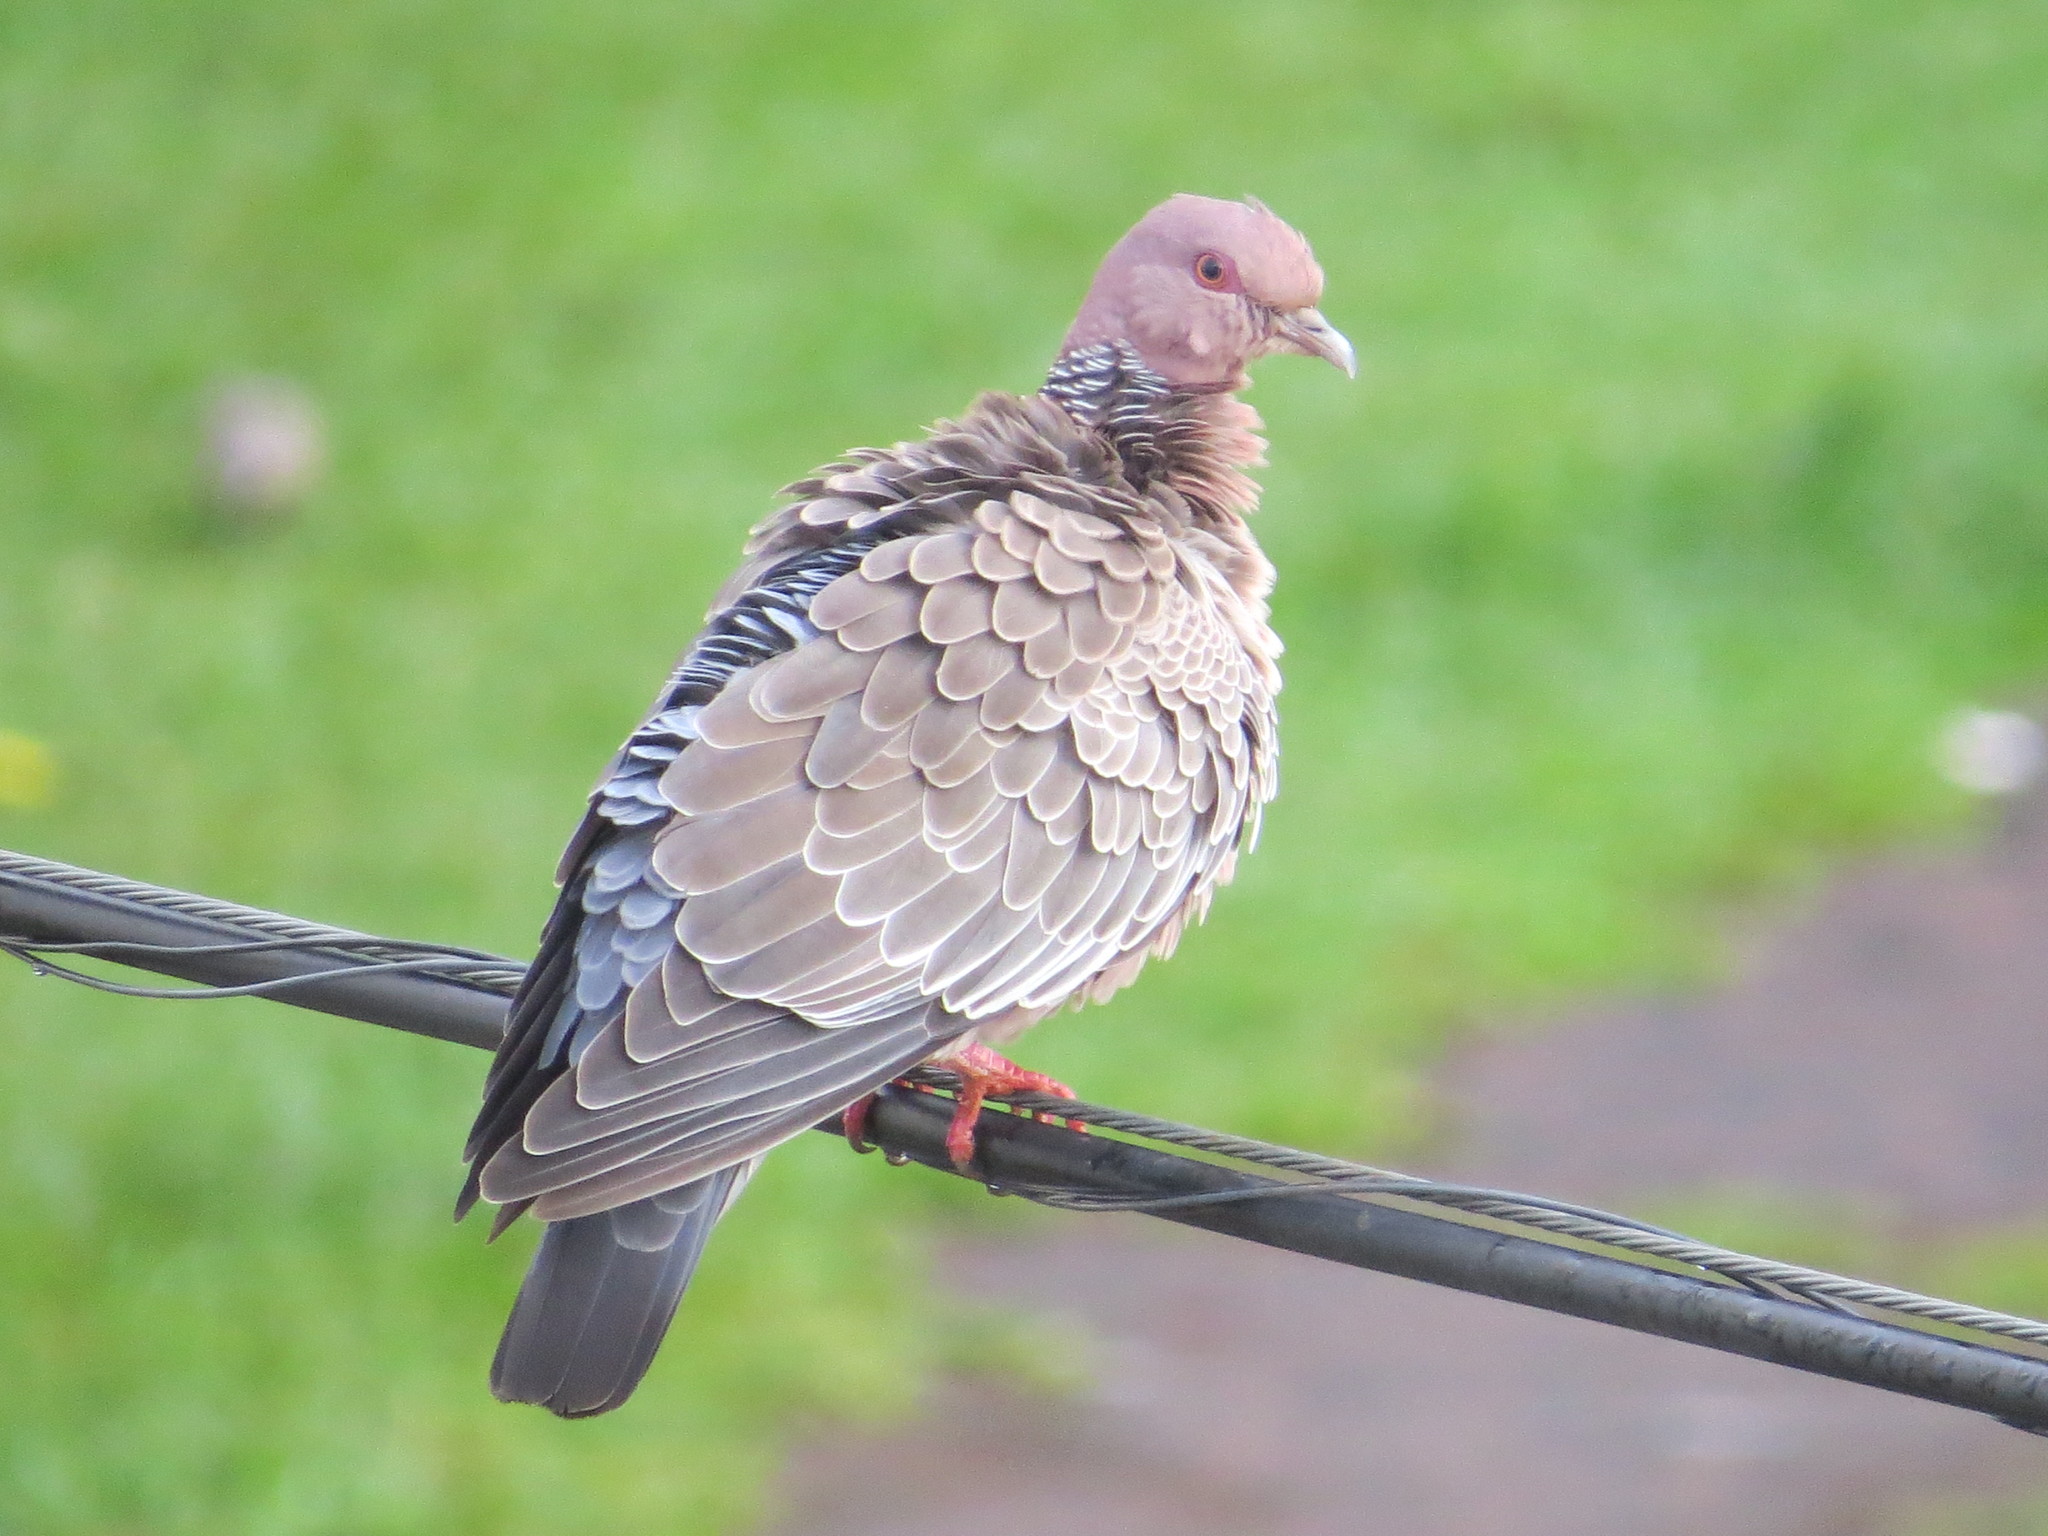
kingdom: Animalia
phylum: Chordata
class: Aves
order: Columbiformes
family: Columbidae
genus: Patagioenas
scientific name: Patagioenas picazuro
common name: Picazuro pigeon
